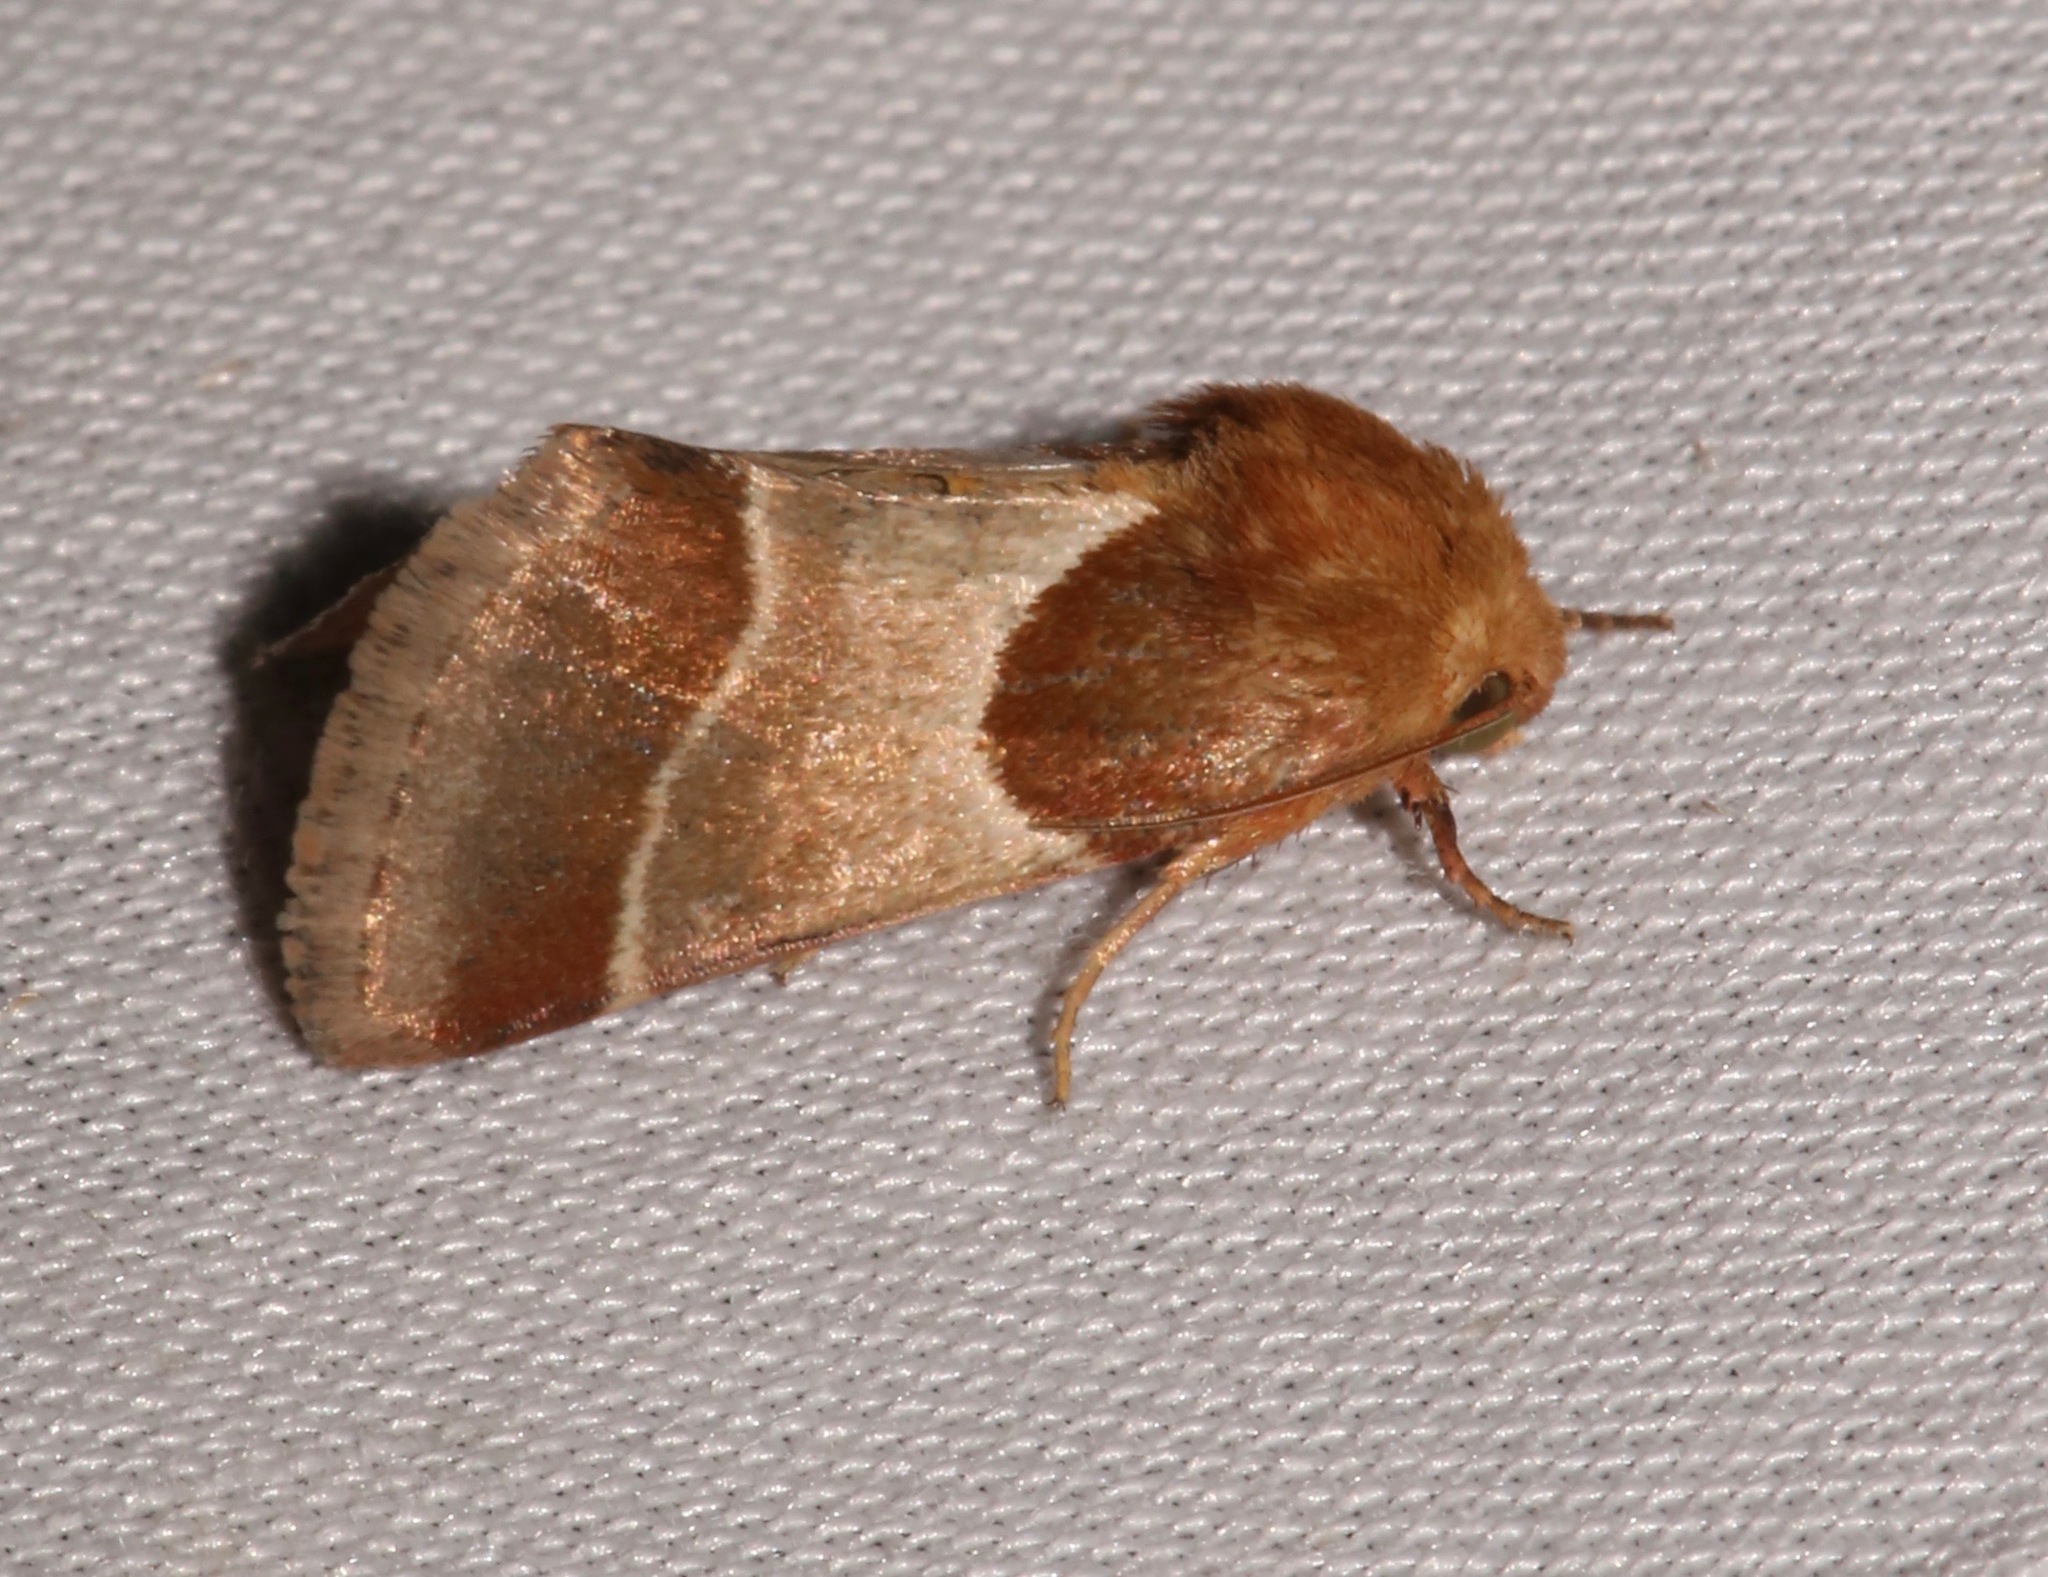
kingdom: Animalia
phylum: Arthropoda
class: Insecta
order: Lepidoptera
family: Noctuidae
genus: Schinia
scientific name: Schinia arcigera
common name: Arcigera flower moth
